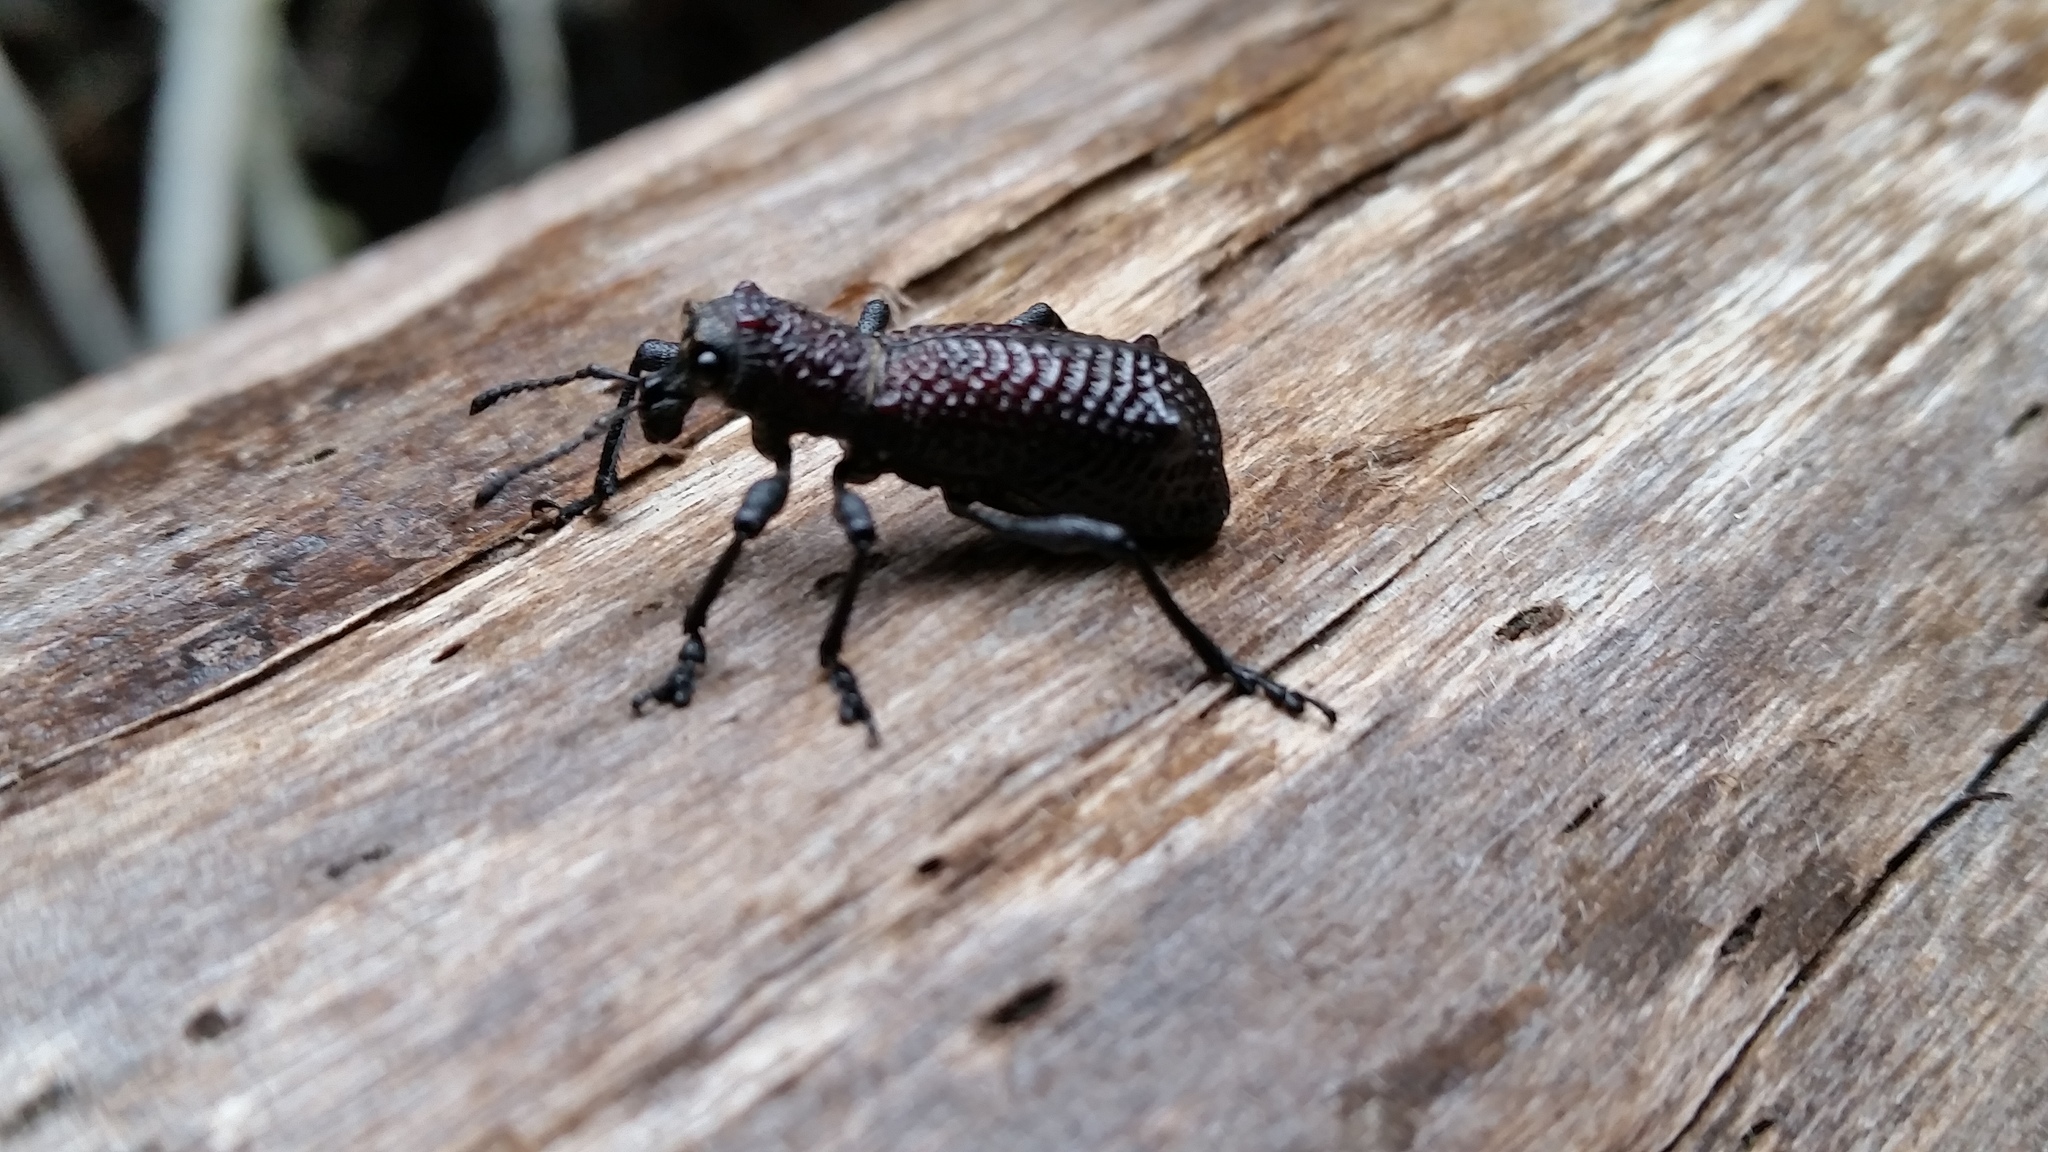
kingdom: Animalia
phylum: Arthropoda
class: Insecta
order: Coleoptera
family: Curculionidae
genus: Aegorhinus
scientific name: Aegorhinus vitulus
